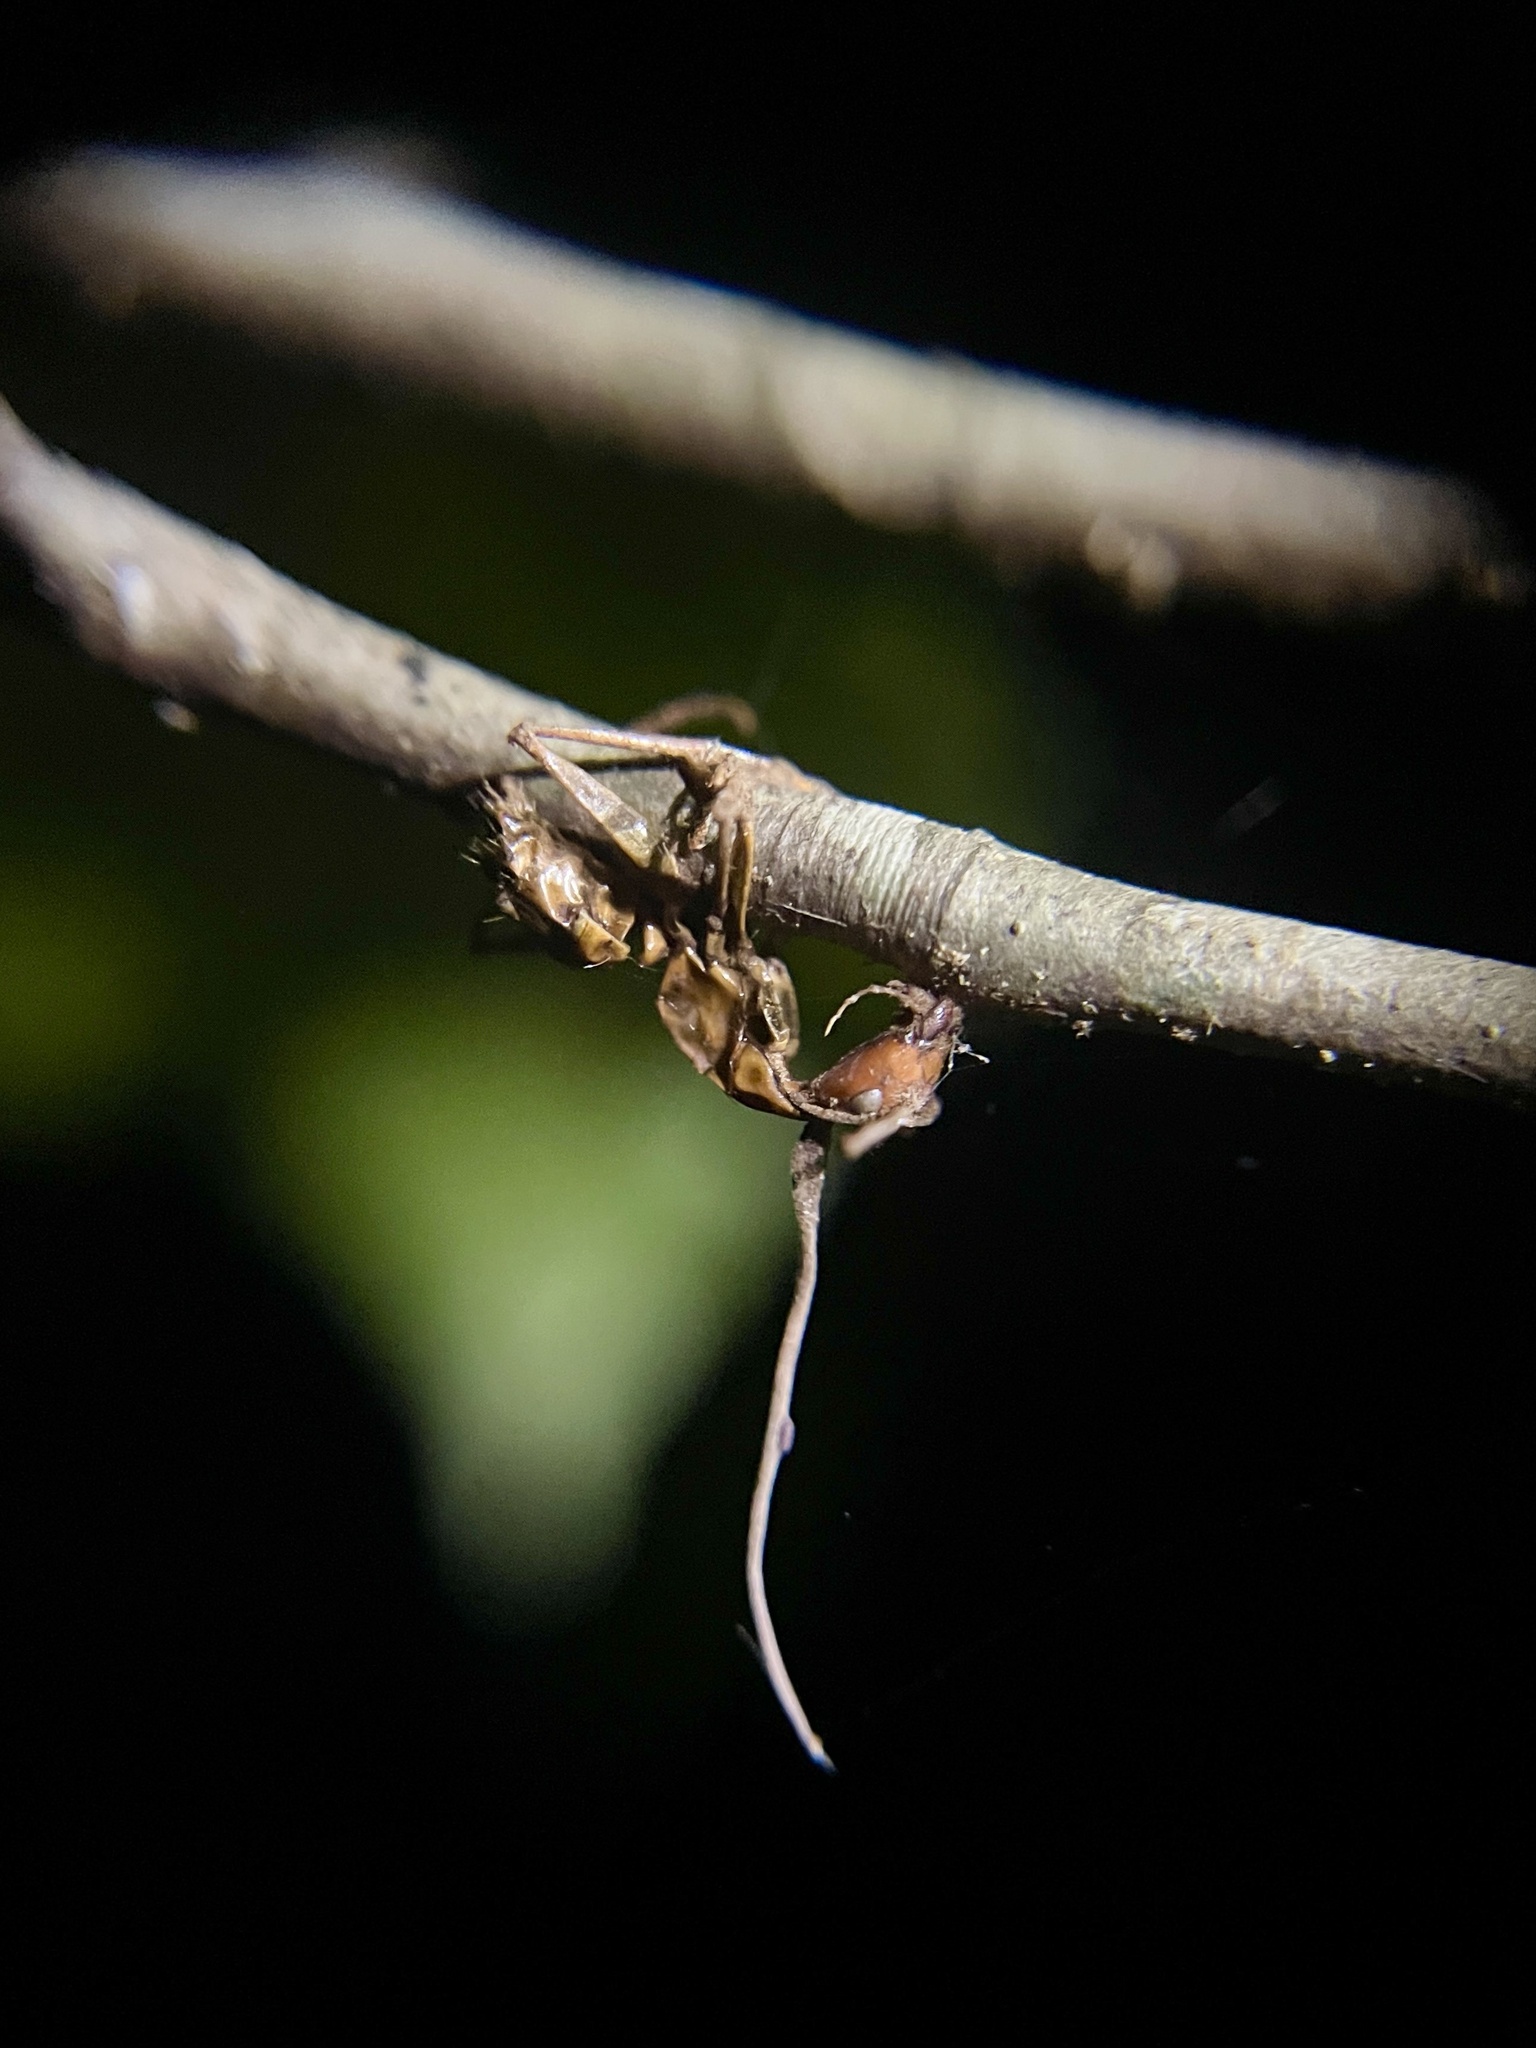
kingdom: Animalia
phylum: Arthropoda
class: Insecta
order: Hymenoptera
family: Formicidae
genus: Camponotus
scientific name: Camponotus castaneus
